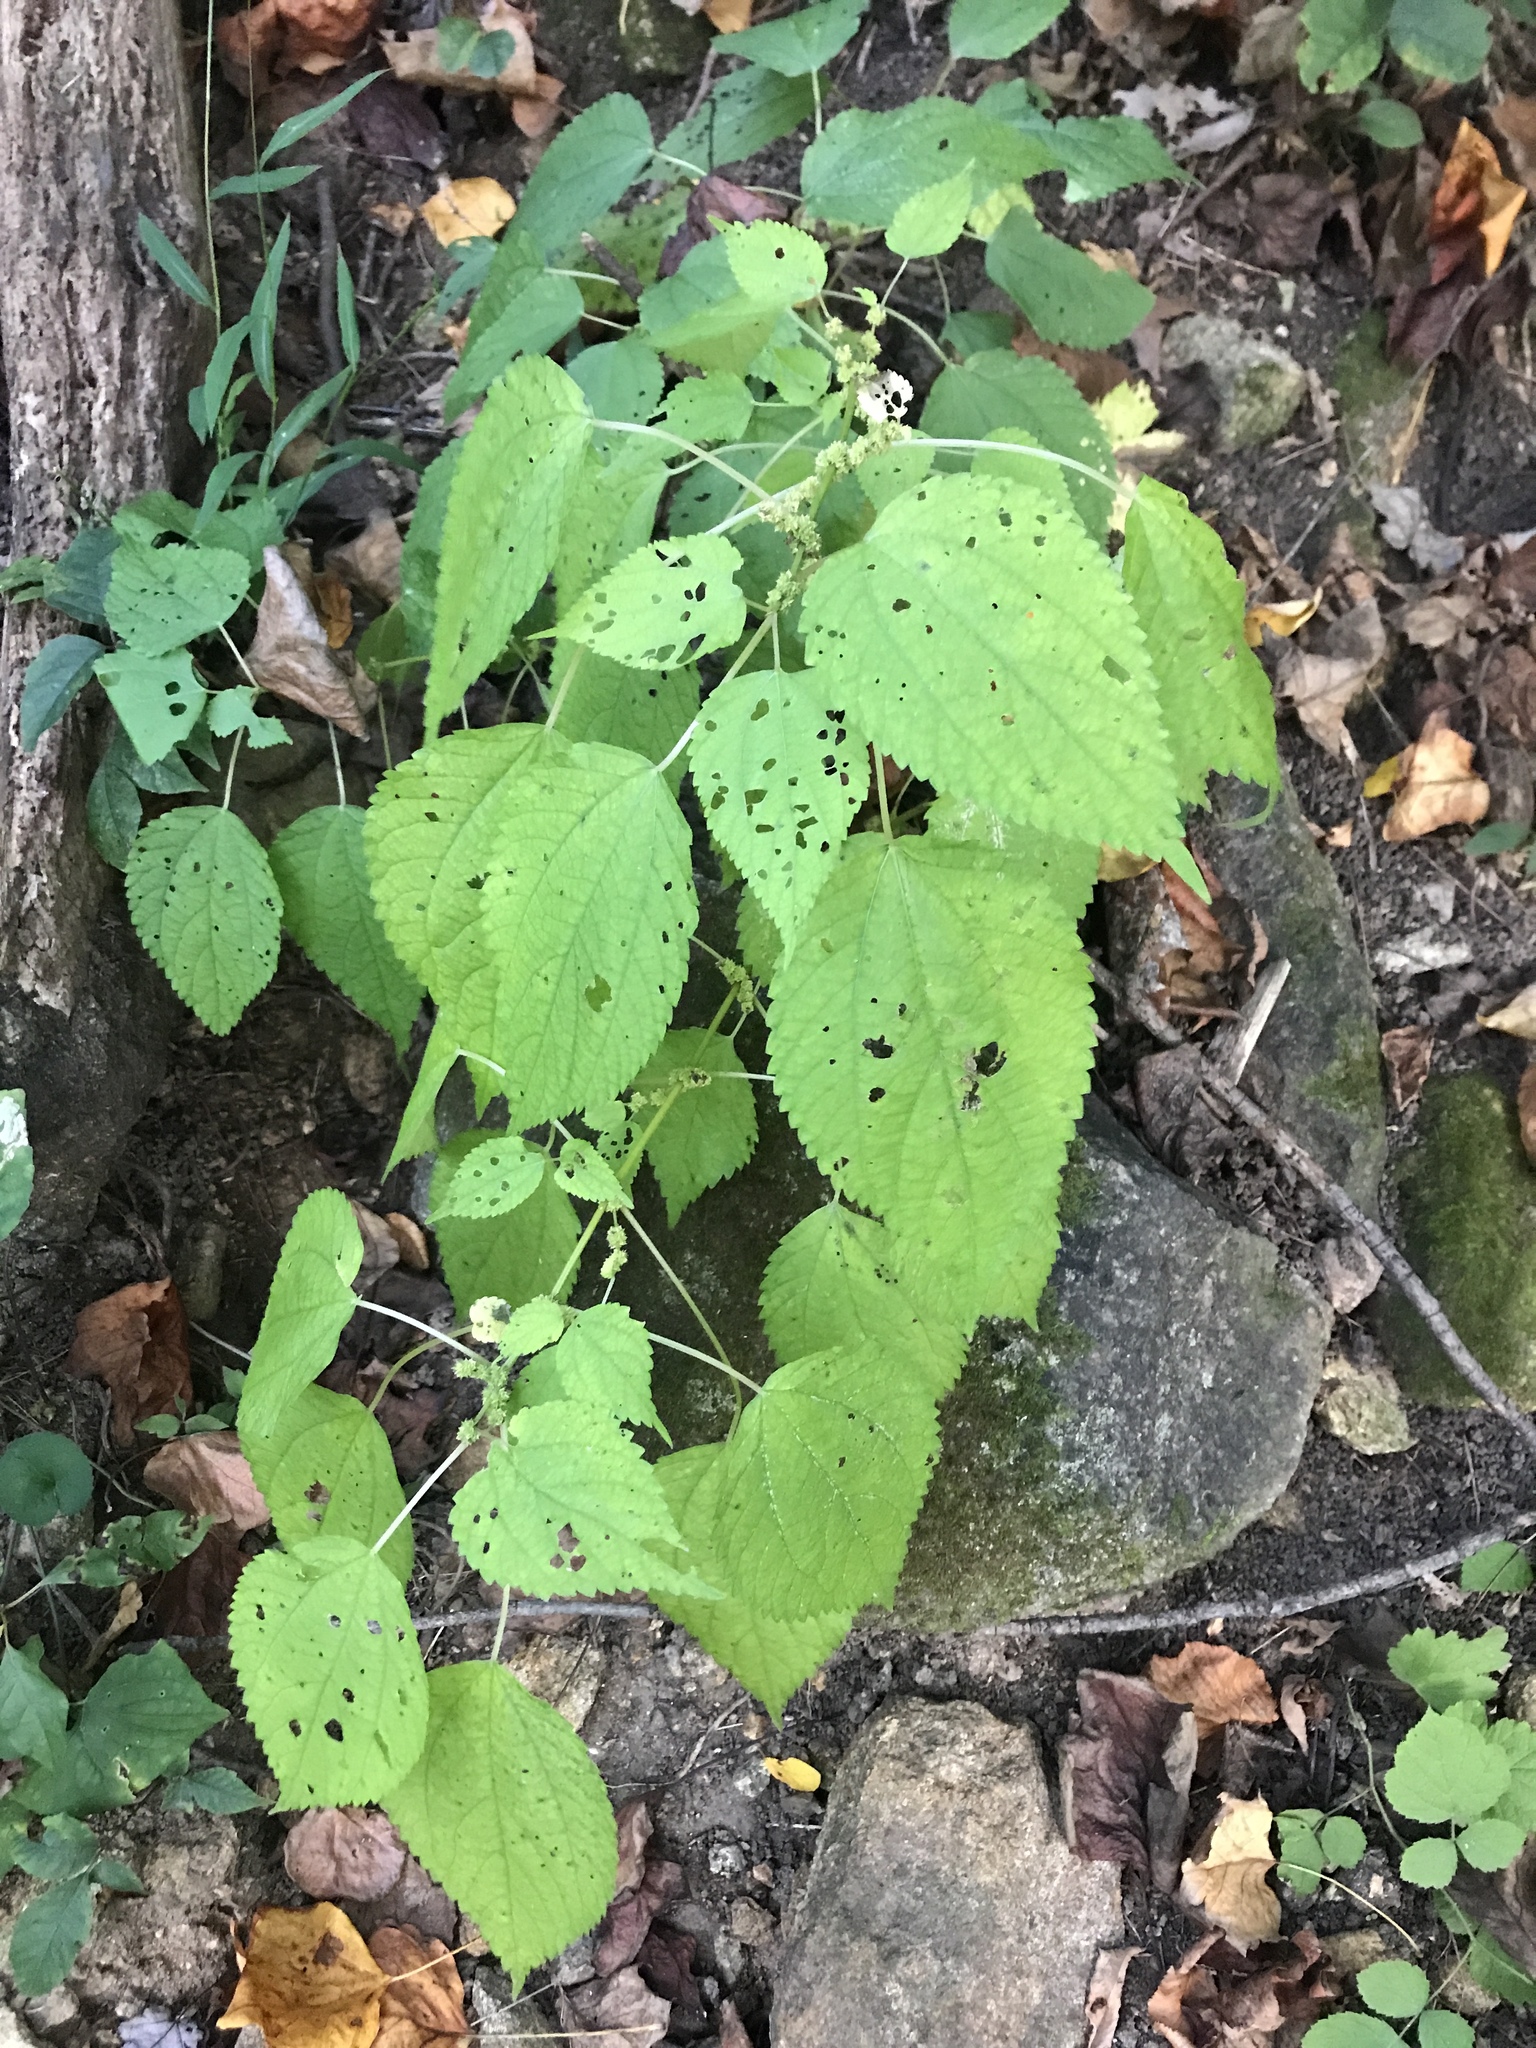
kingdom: Plantae
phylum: Tracheophyta
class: Magnoliopsida
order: Rosales
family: Urticaceae
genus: Boehmeria
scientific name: Boehmeria cylindrica
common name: Bog-hemp
